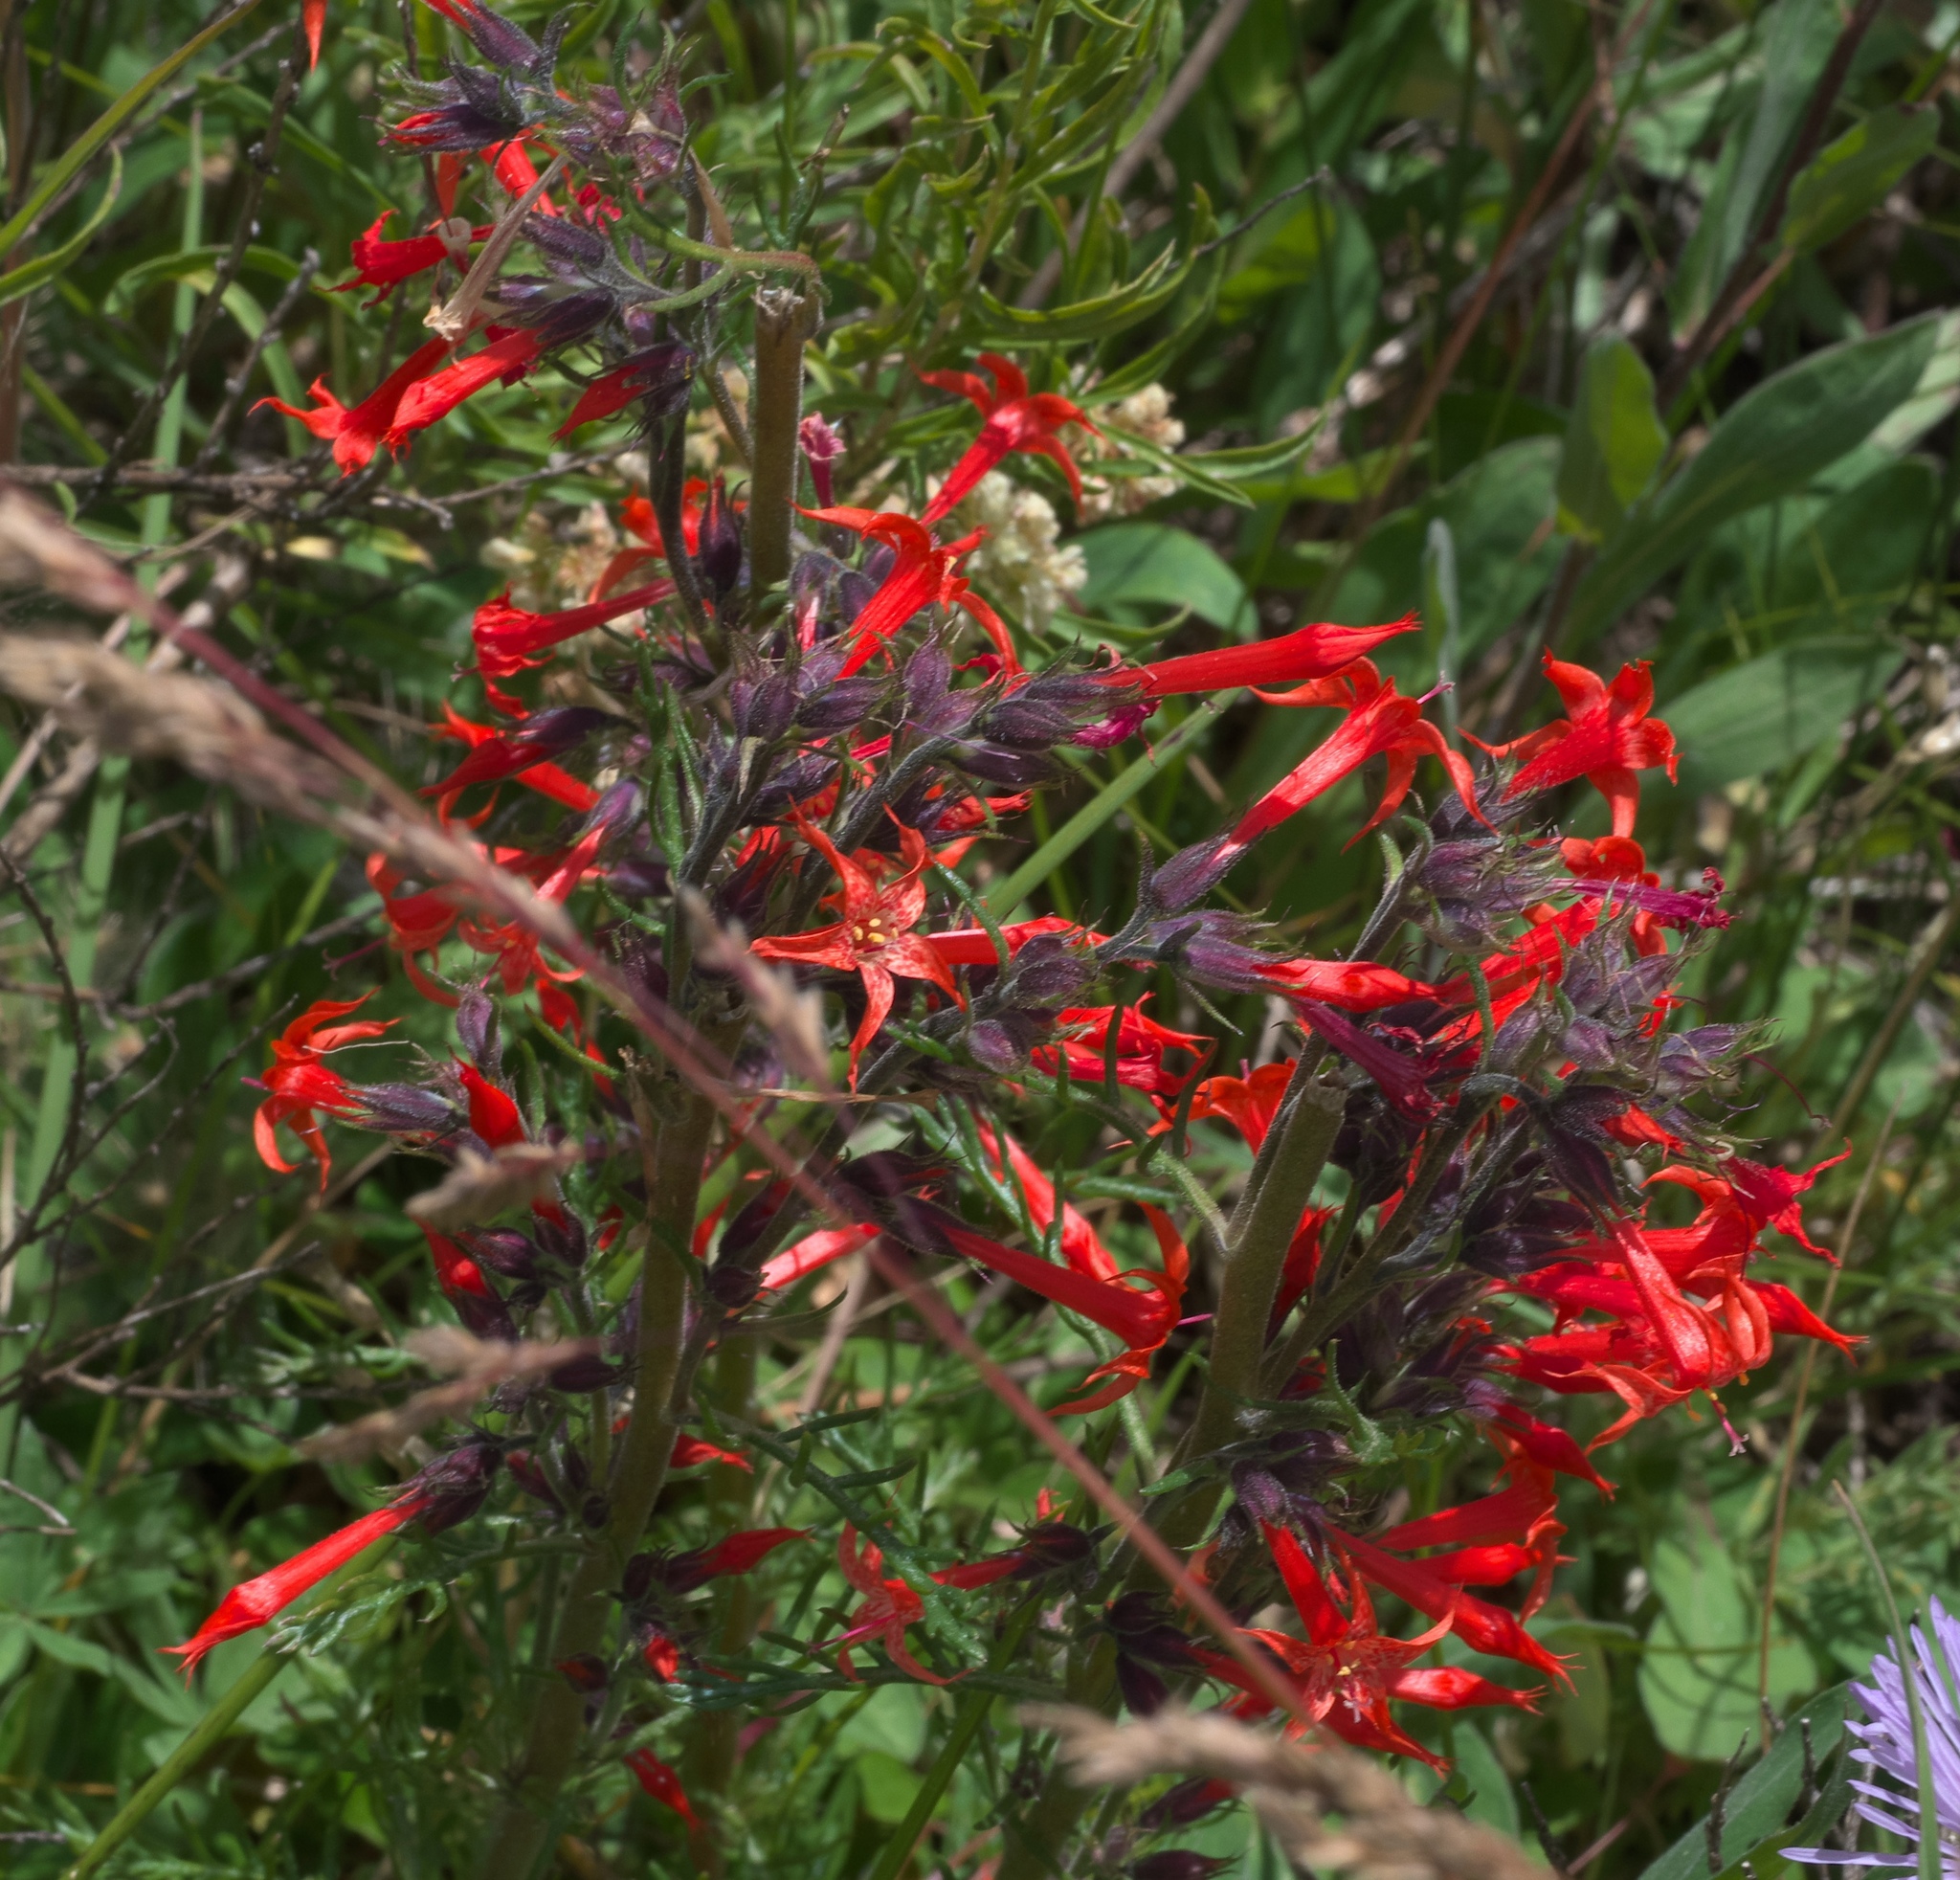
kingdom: Plantae
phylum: Tracheophyta
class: Magnoliopsida
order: Ericales
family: Polemoniaceae
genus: Ipomopsis
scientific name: Ipomopsis aggregata
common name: Scarlet gilia
